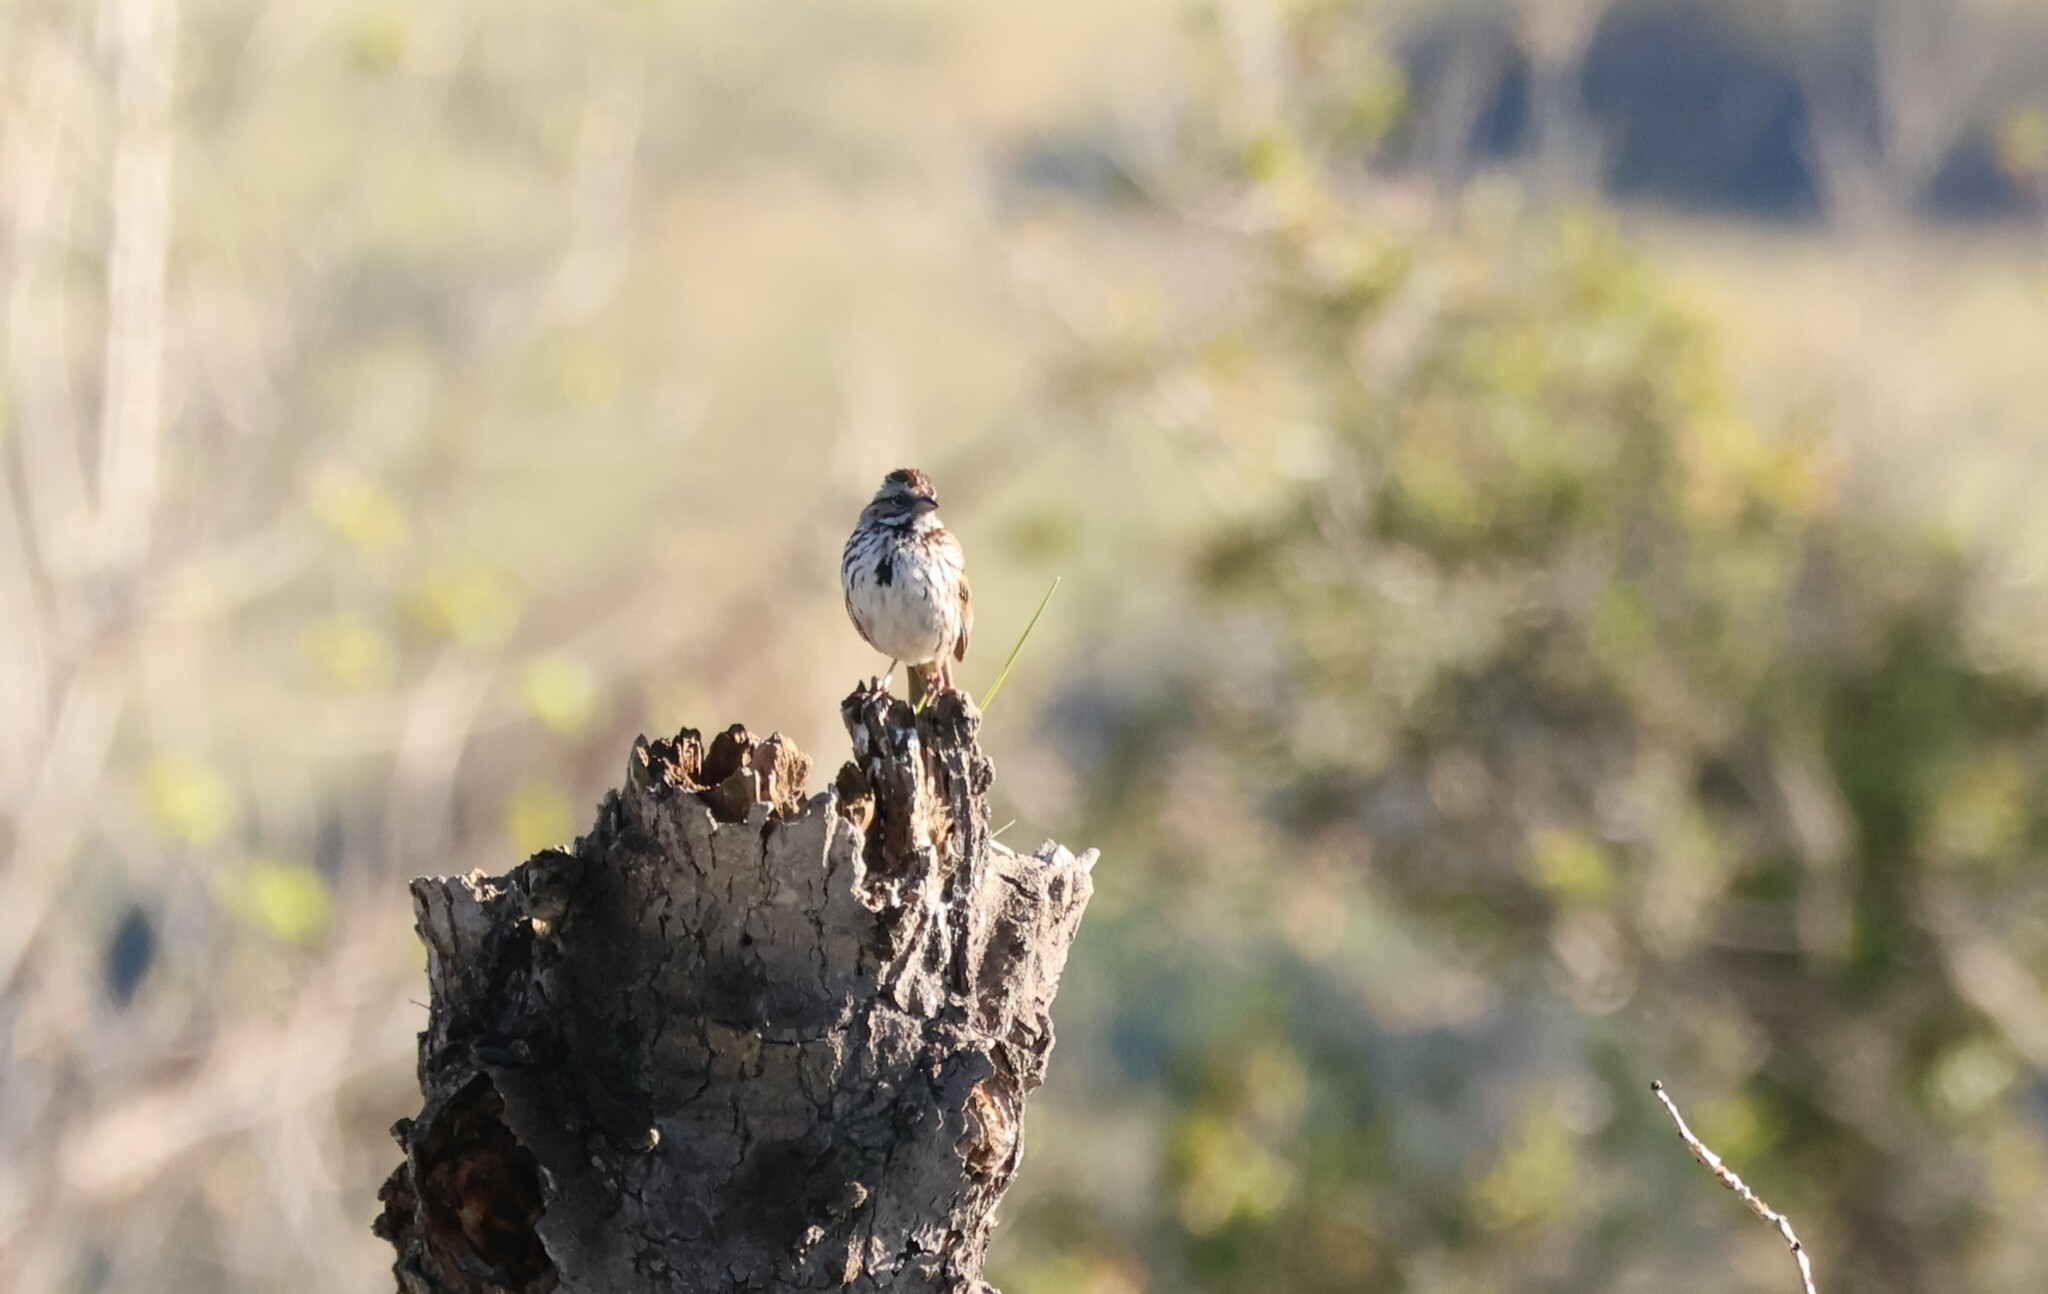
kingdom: Animalia
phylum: Chordata
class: Aves
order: Passeriformes
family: Passerellidae
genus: Melospiza
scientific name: Melospiza melodia
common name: Song sparrow
